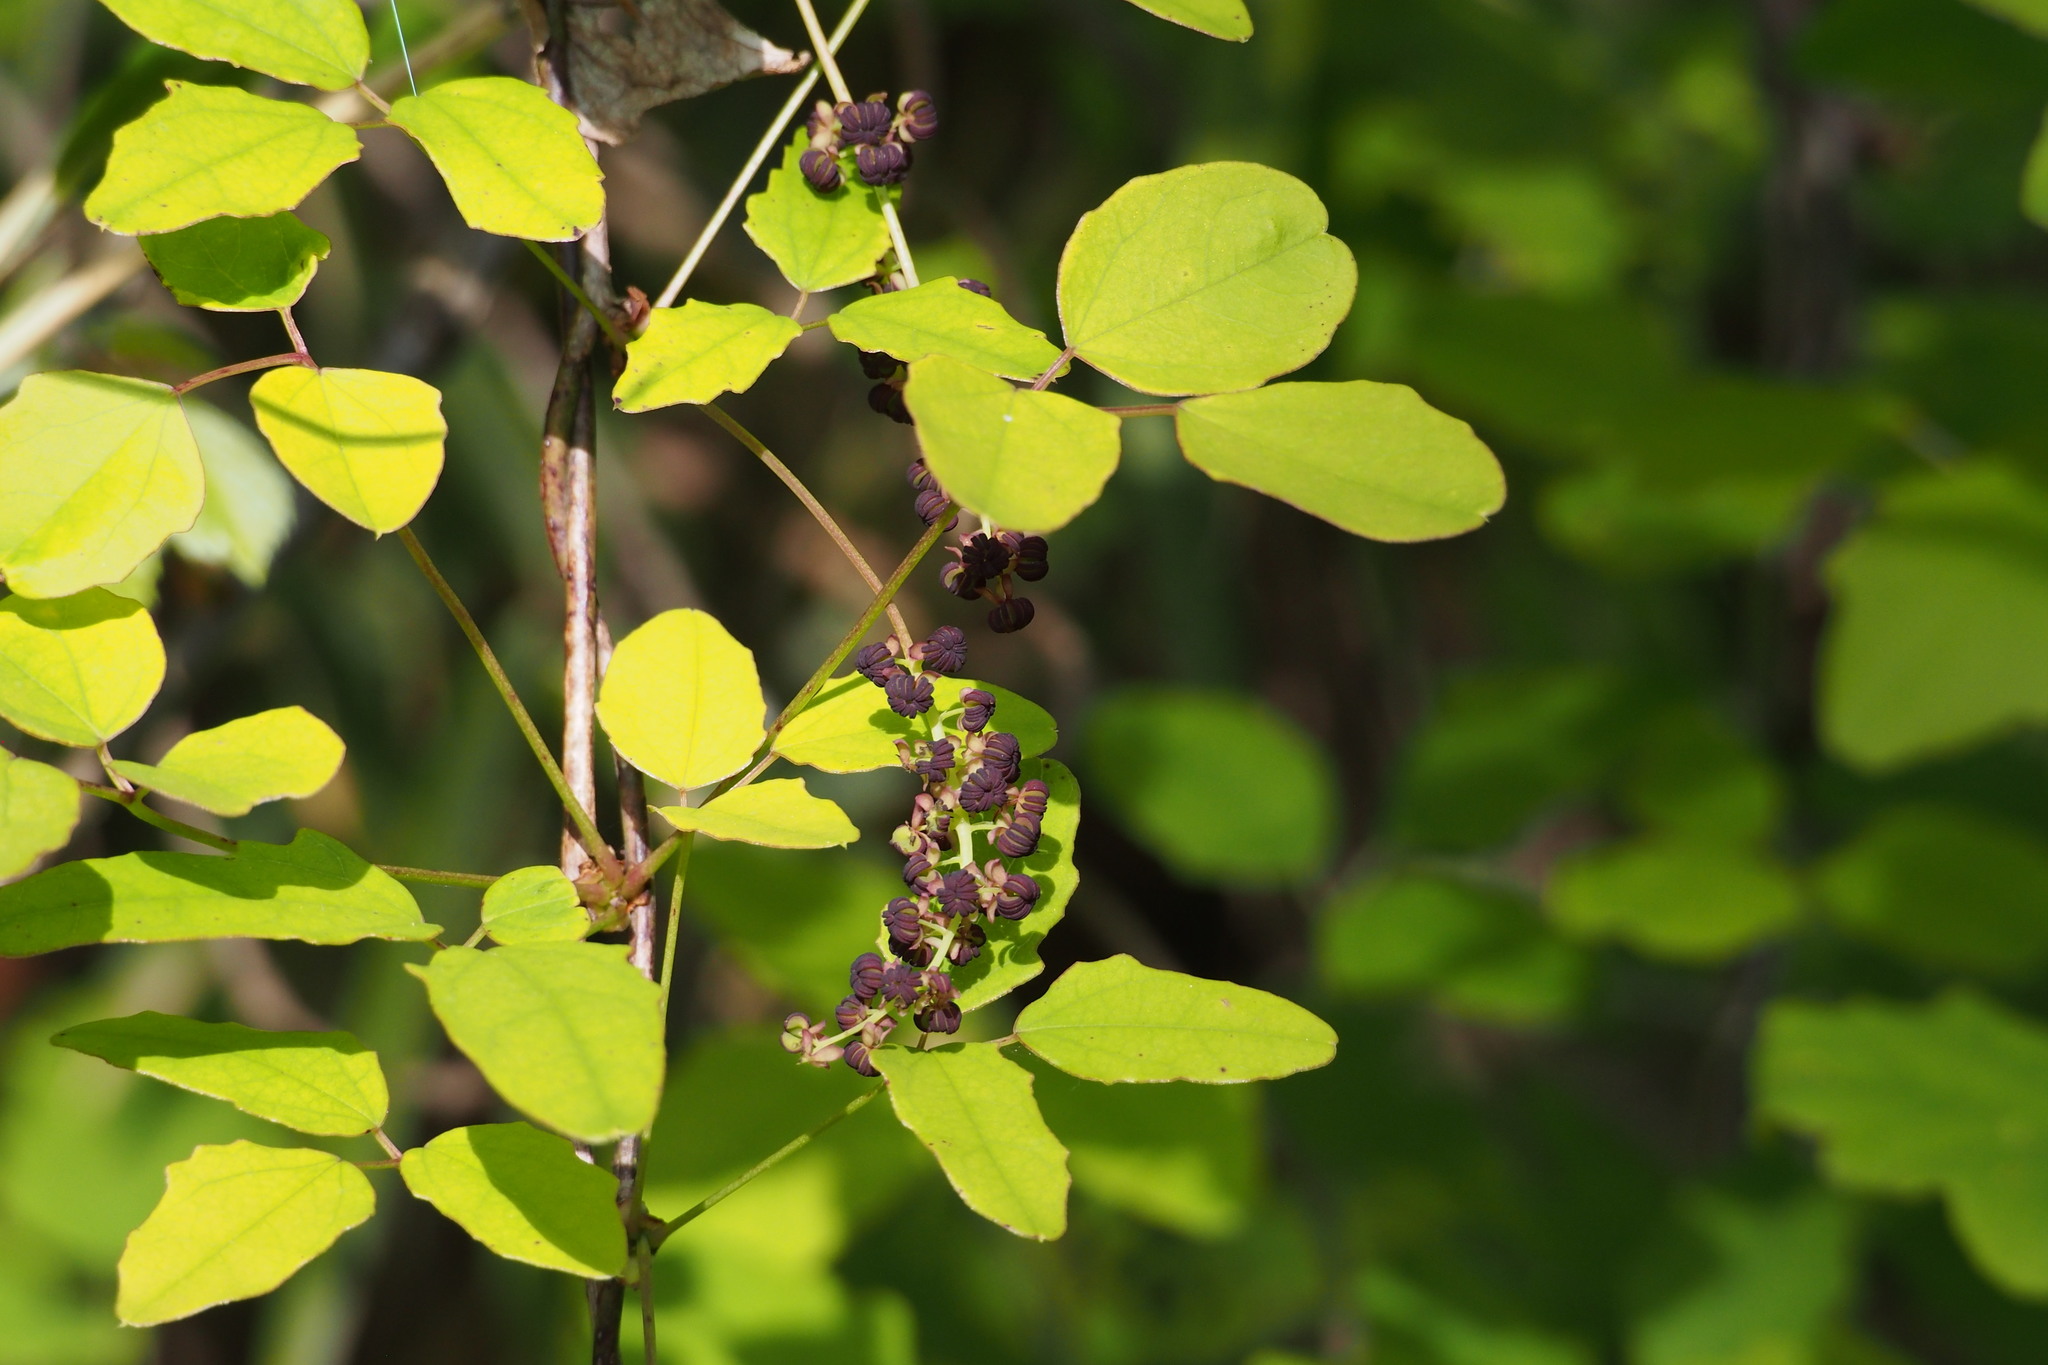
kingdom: Plantae
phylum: Tracheophyta
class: Magnoliopsida
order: Ranunculales
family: Lardizabalaceae
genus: Akebia
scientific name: Akebia trifoliata
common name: Chocolate-vine
